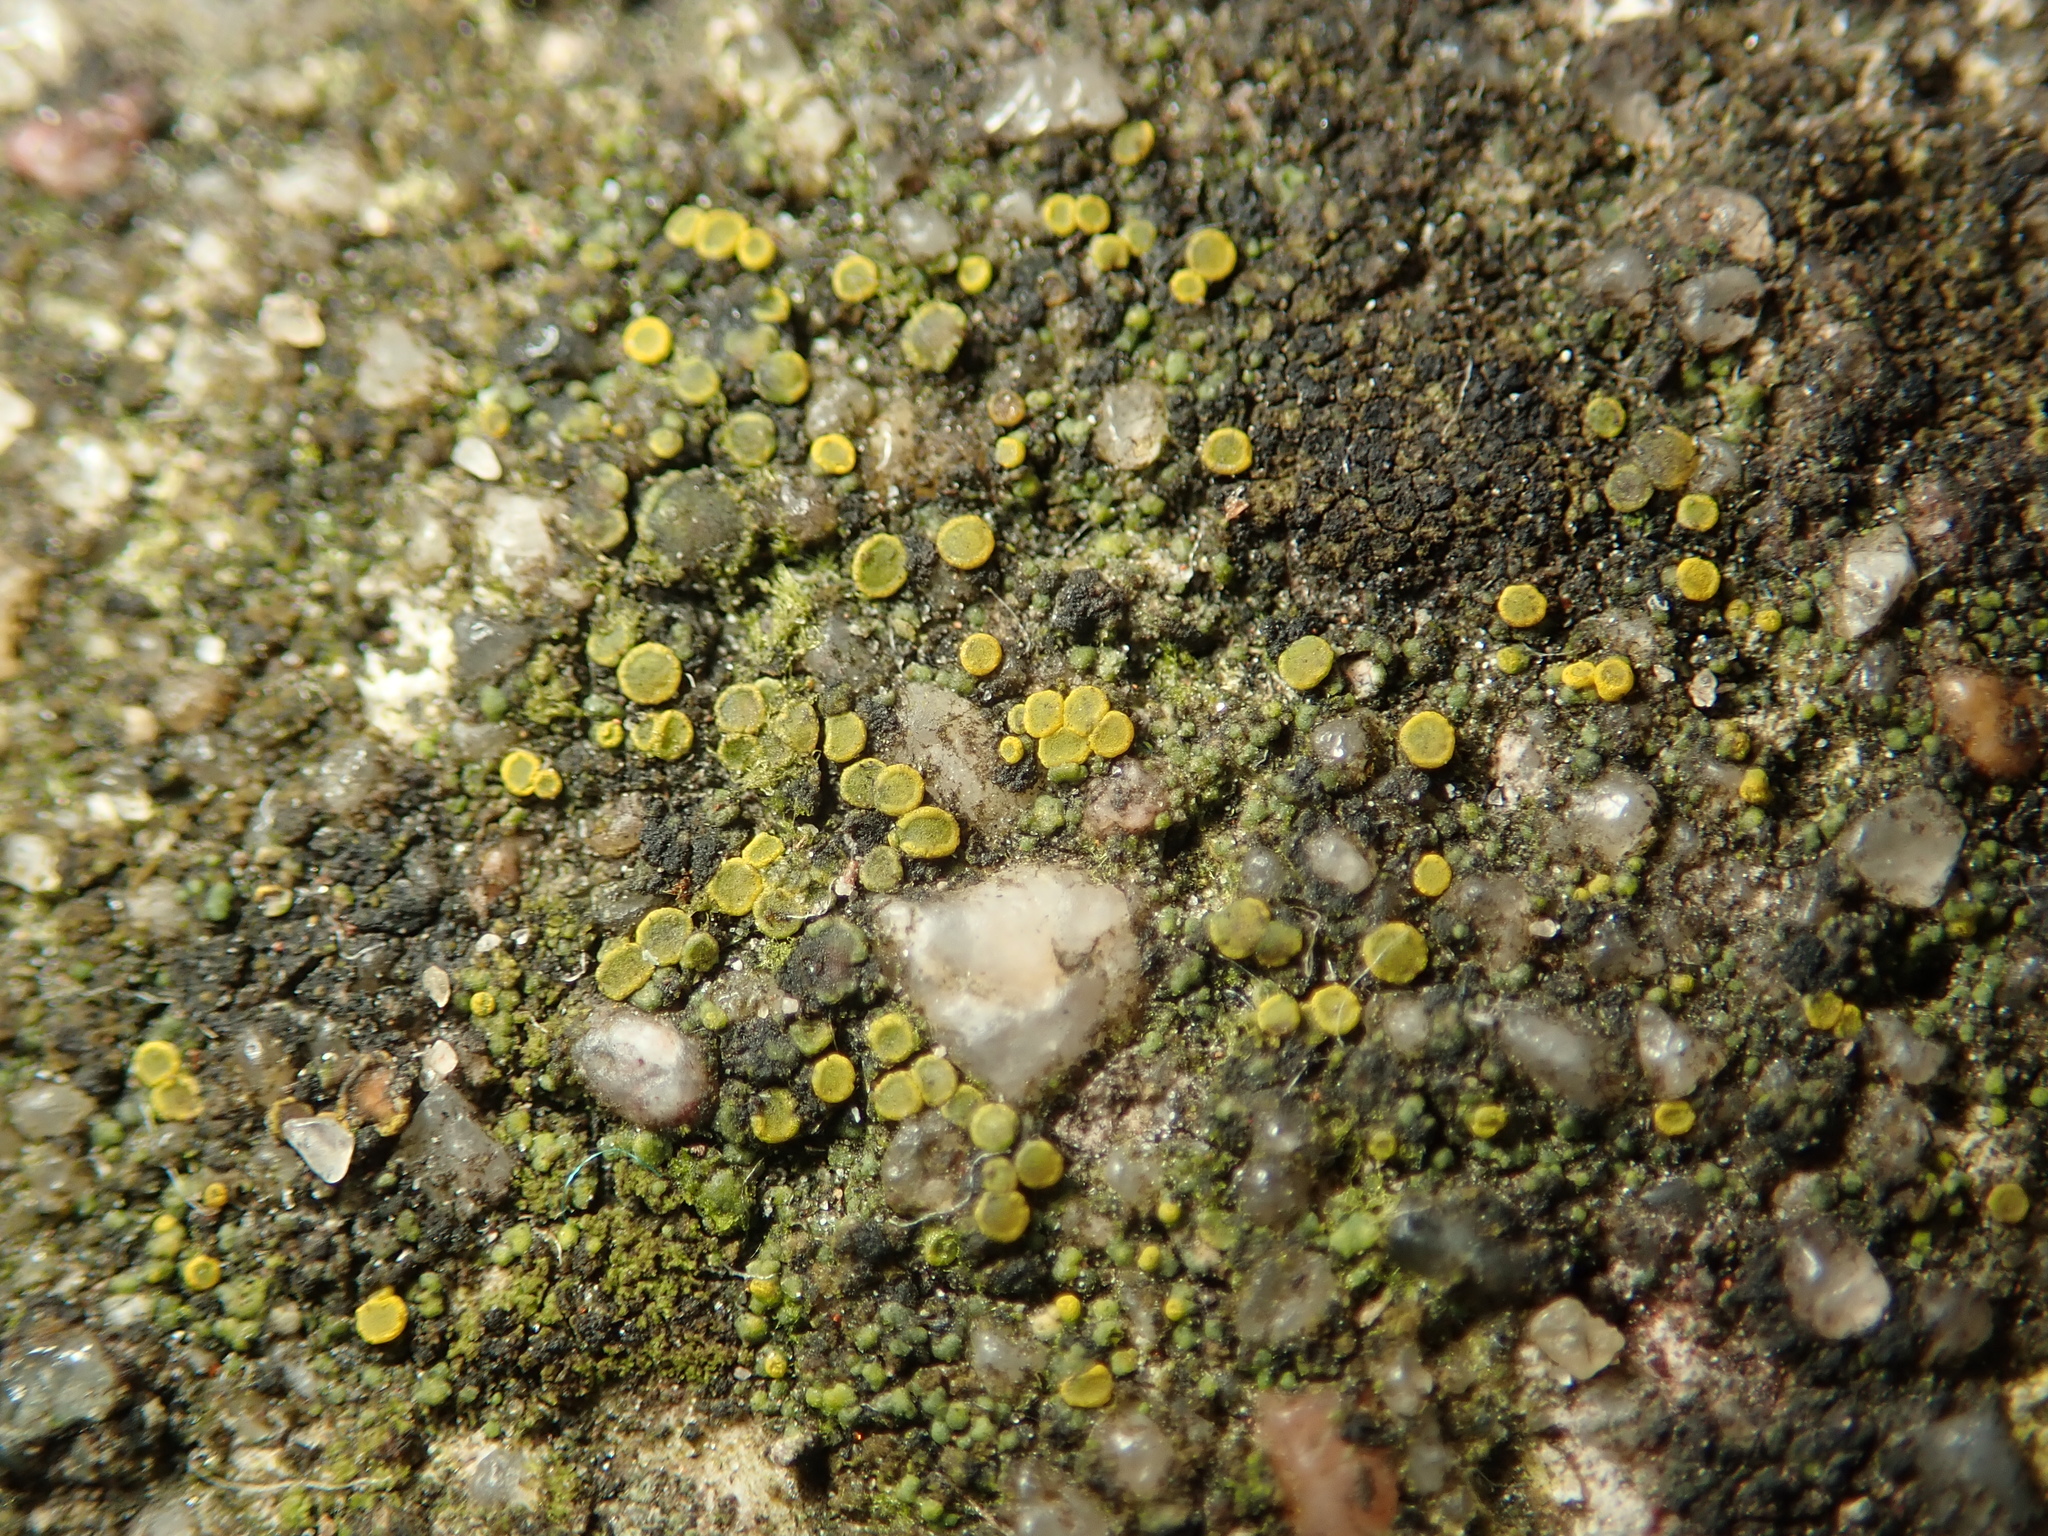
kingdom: Fungi
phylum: Ascomycota
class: Candelariomycetes
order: Candelariales
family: Candelariaceae
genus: Candelariella
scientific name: Candelariella aurella
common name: Hidden goldspeck lichen
